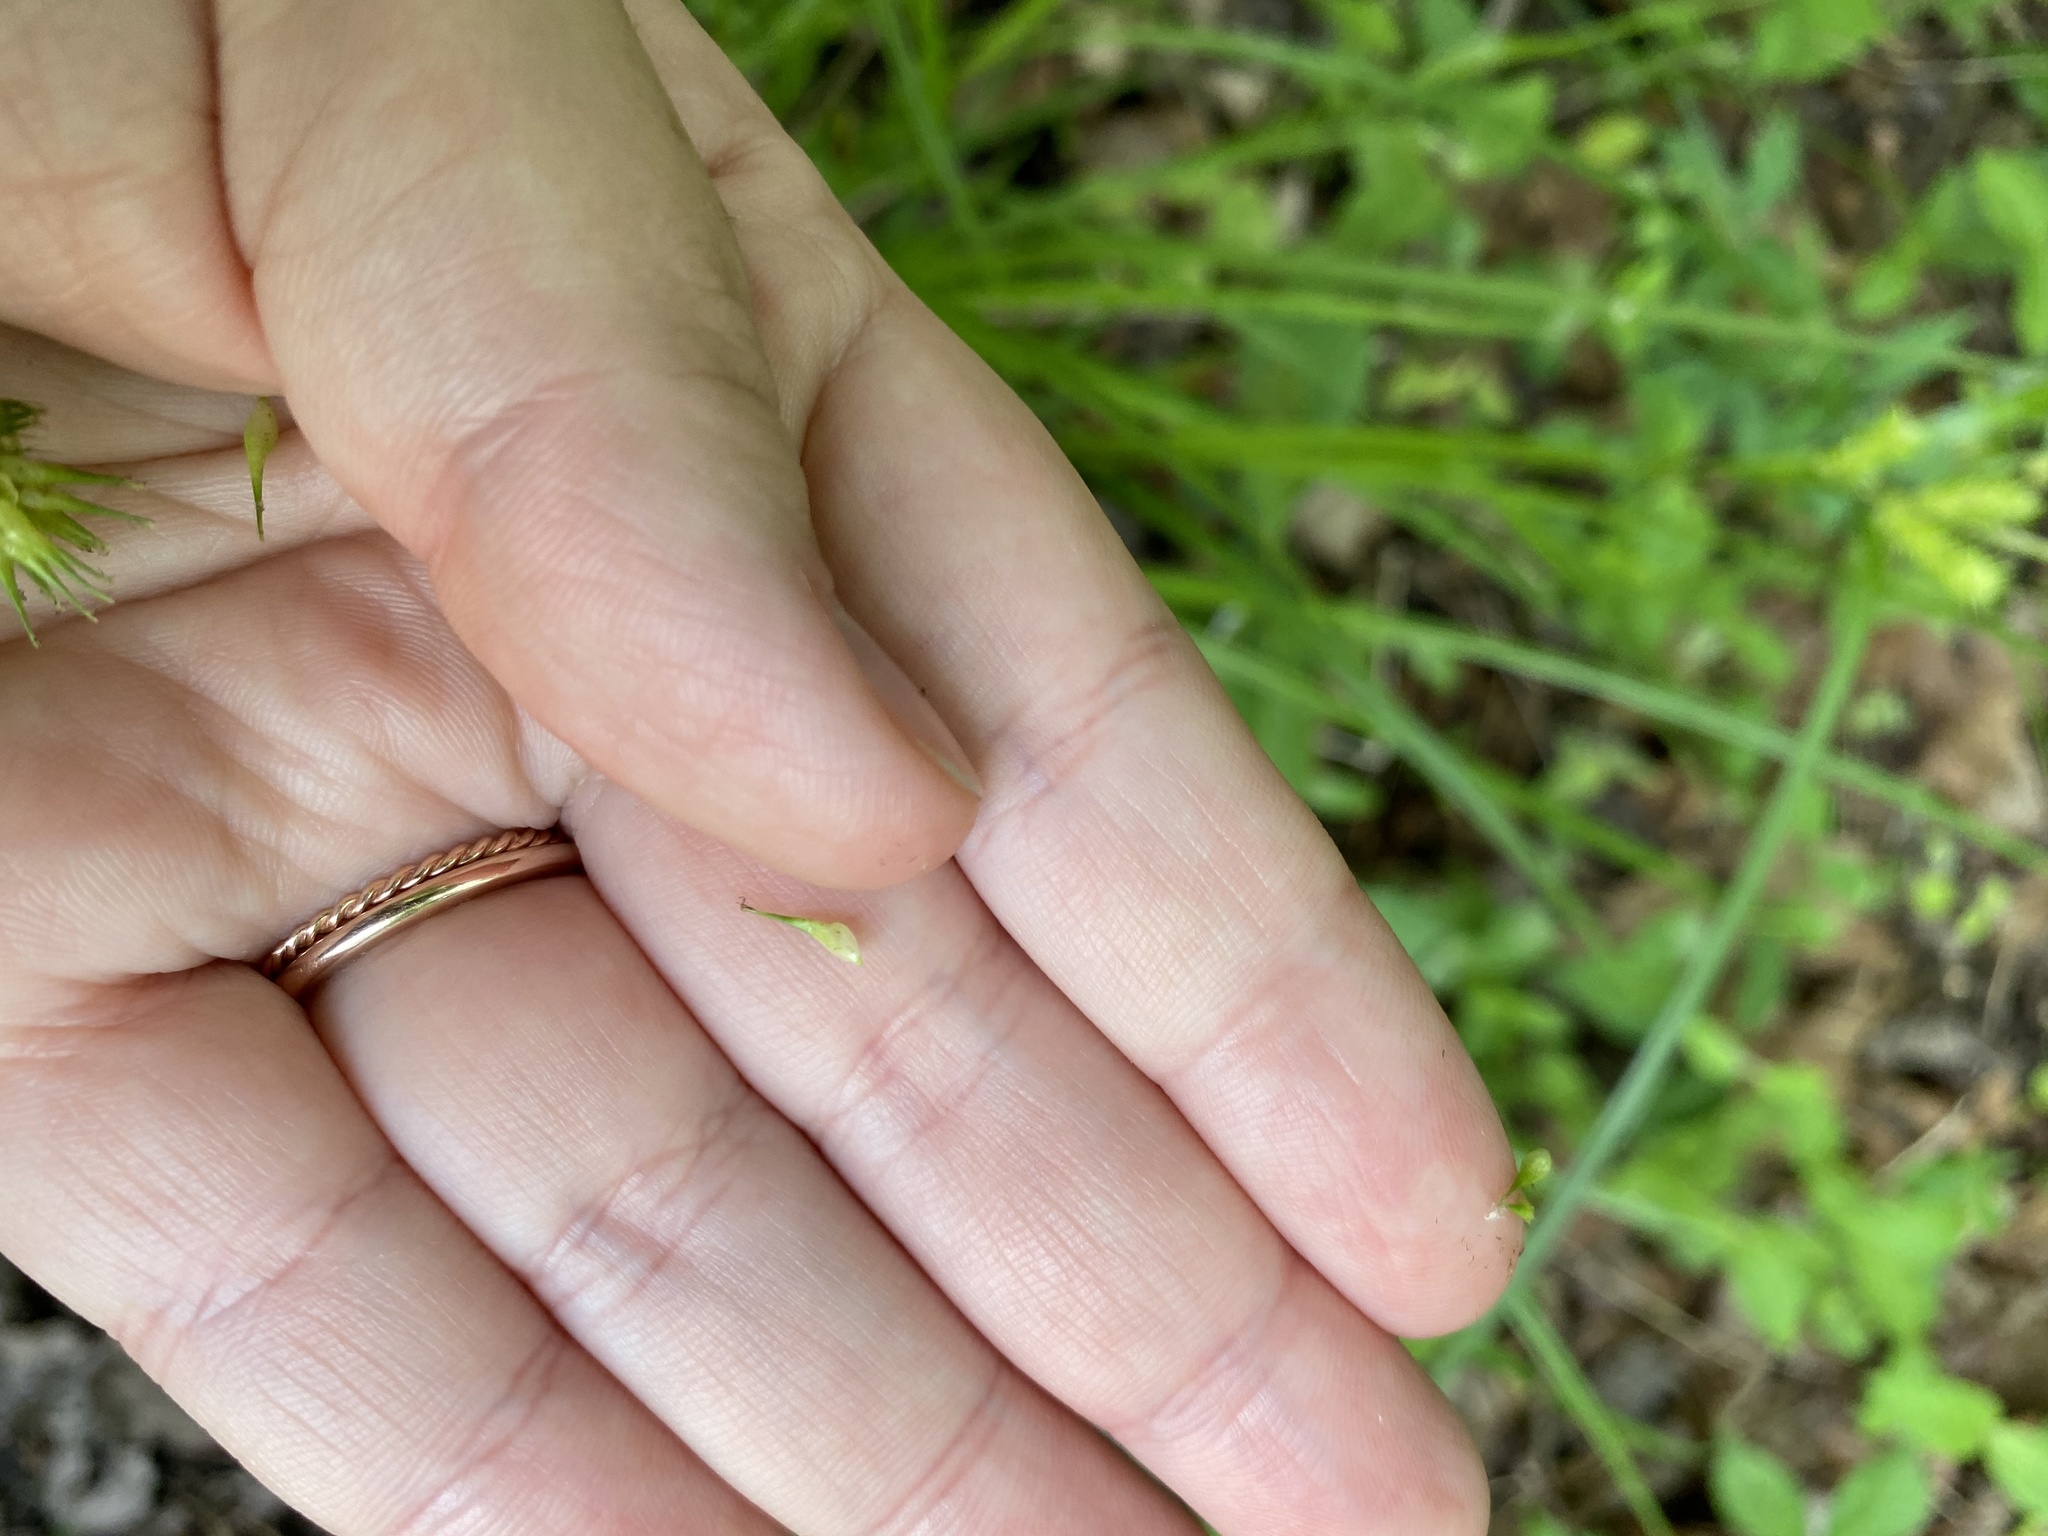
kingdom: Plantae
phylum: Tracheophyta
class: Liliopsida
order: Poales
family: Cyperaceae
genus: Carex
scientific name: Carex lurida
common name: Sallow sedge
